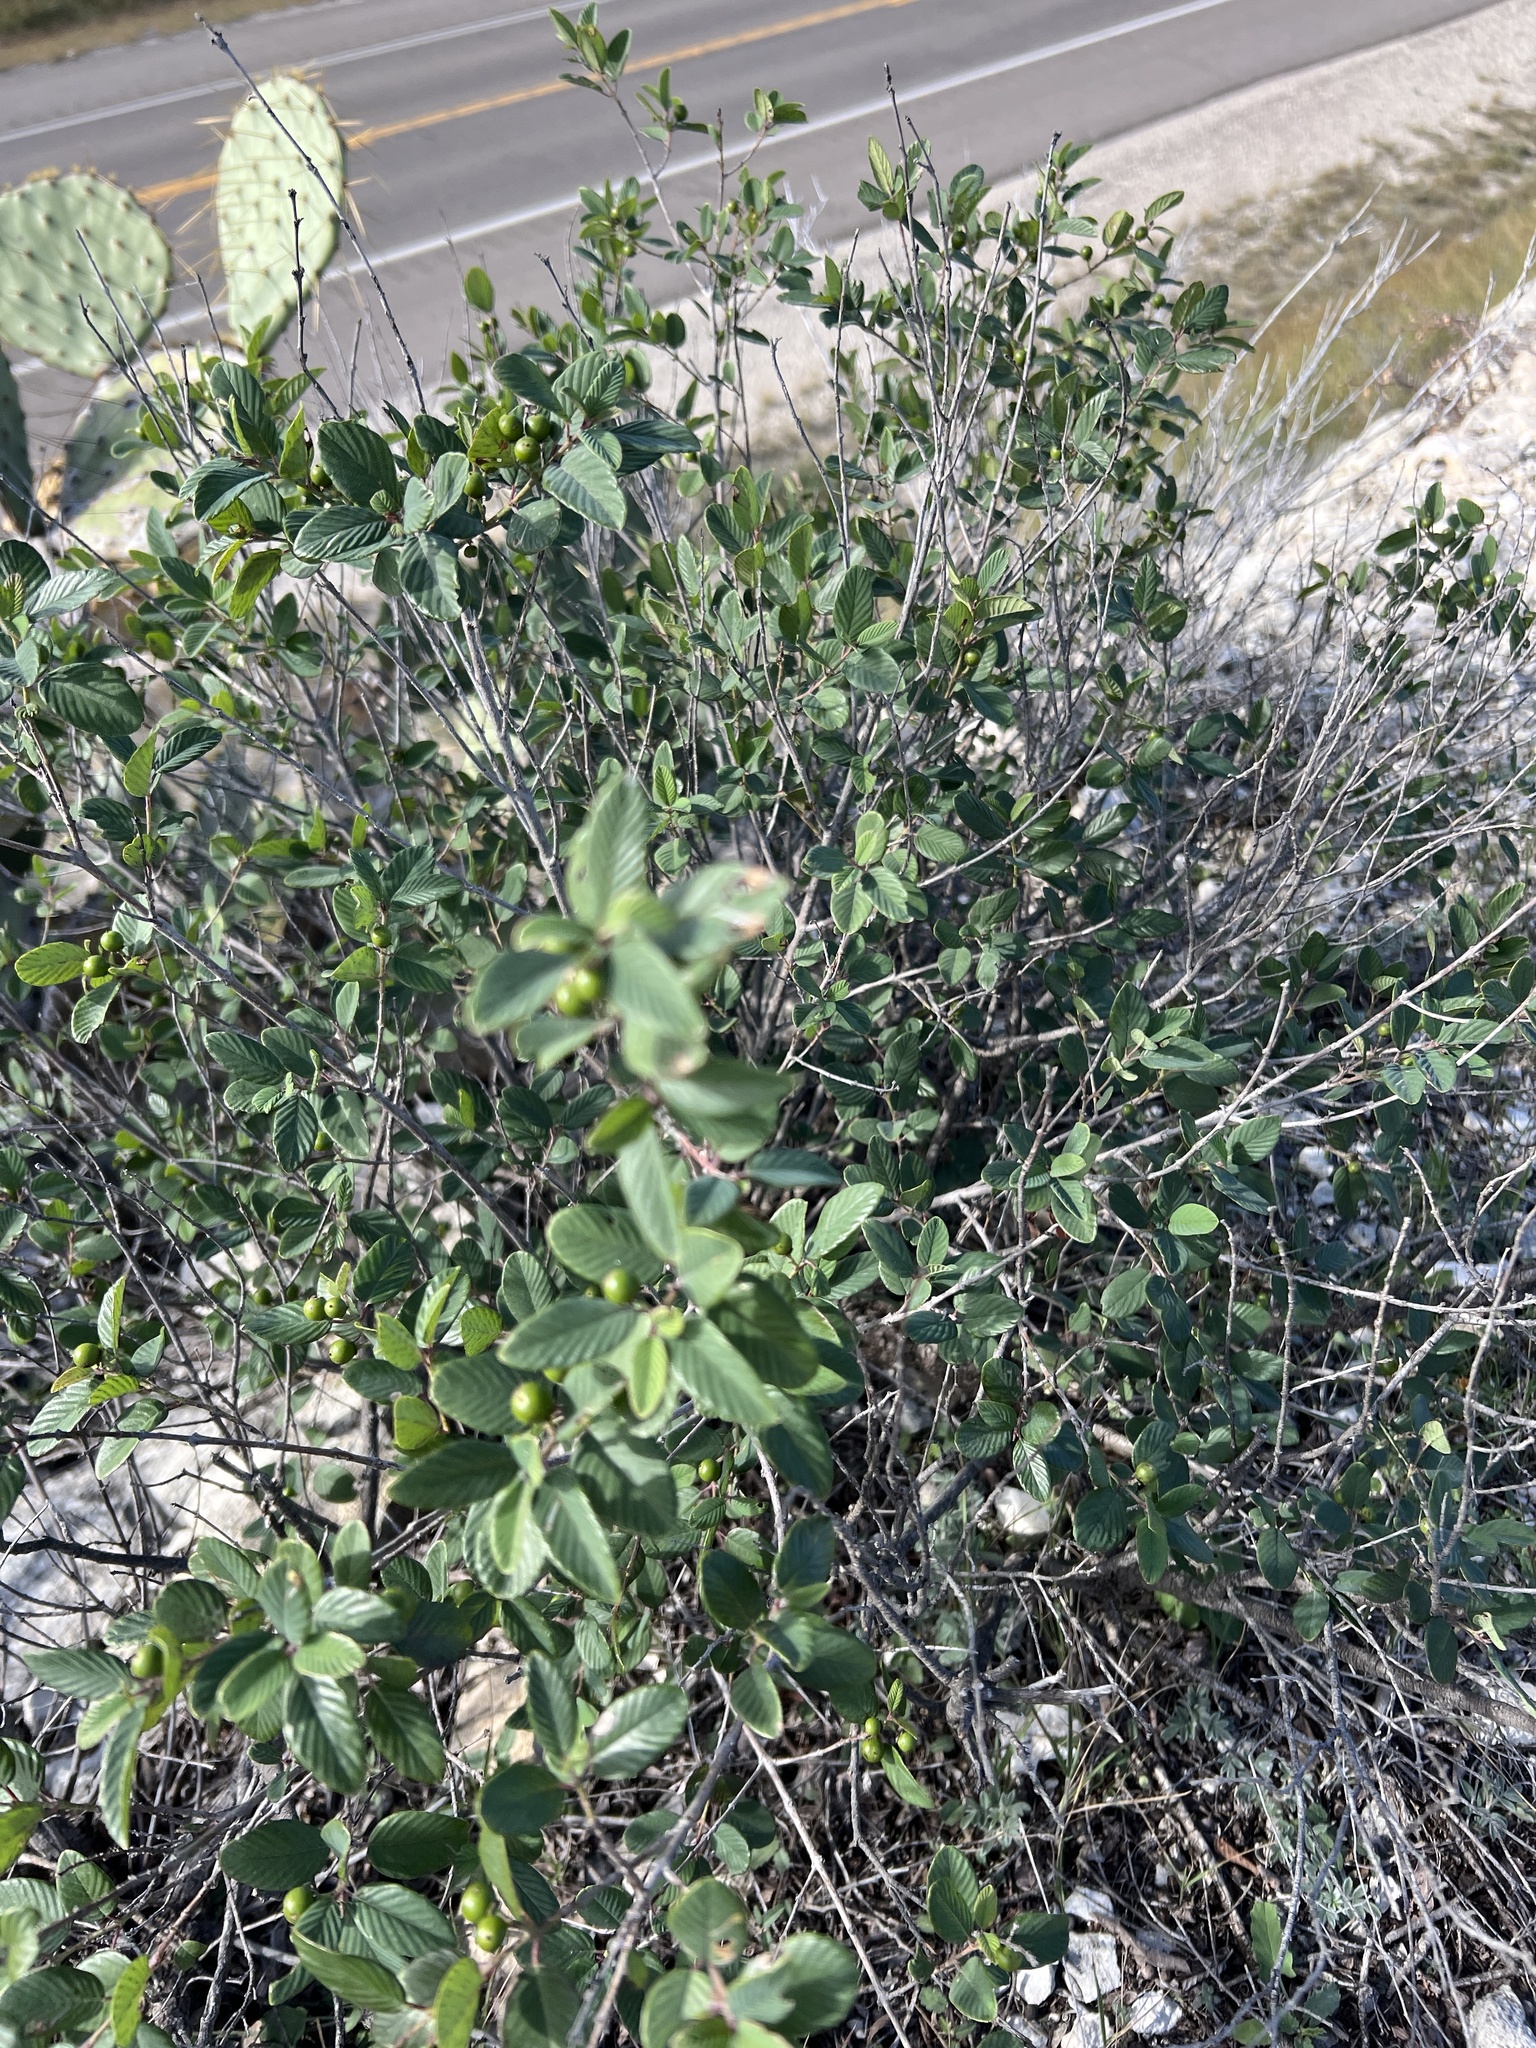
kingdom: Plantae
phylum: Tracheophyta
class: Magnoliopsida
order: Rosales
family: Rhamnaceae
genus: Karwinskia
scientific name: Karwinskia humboldtiana
